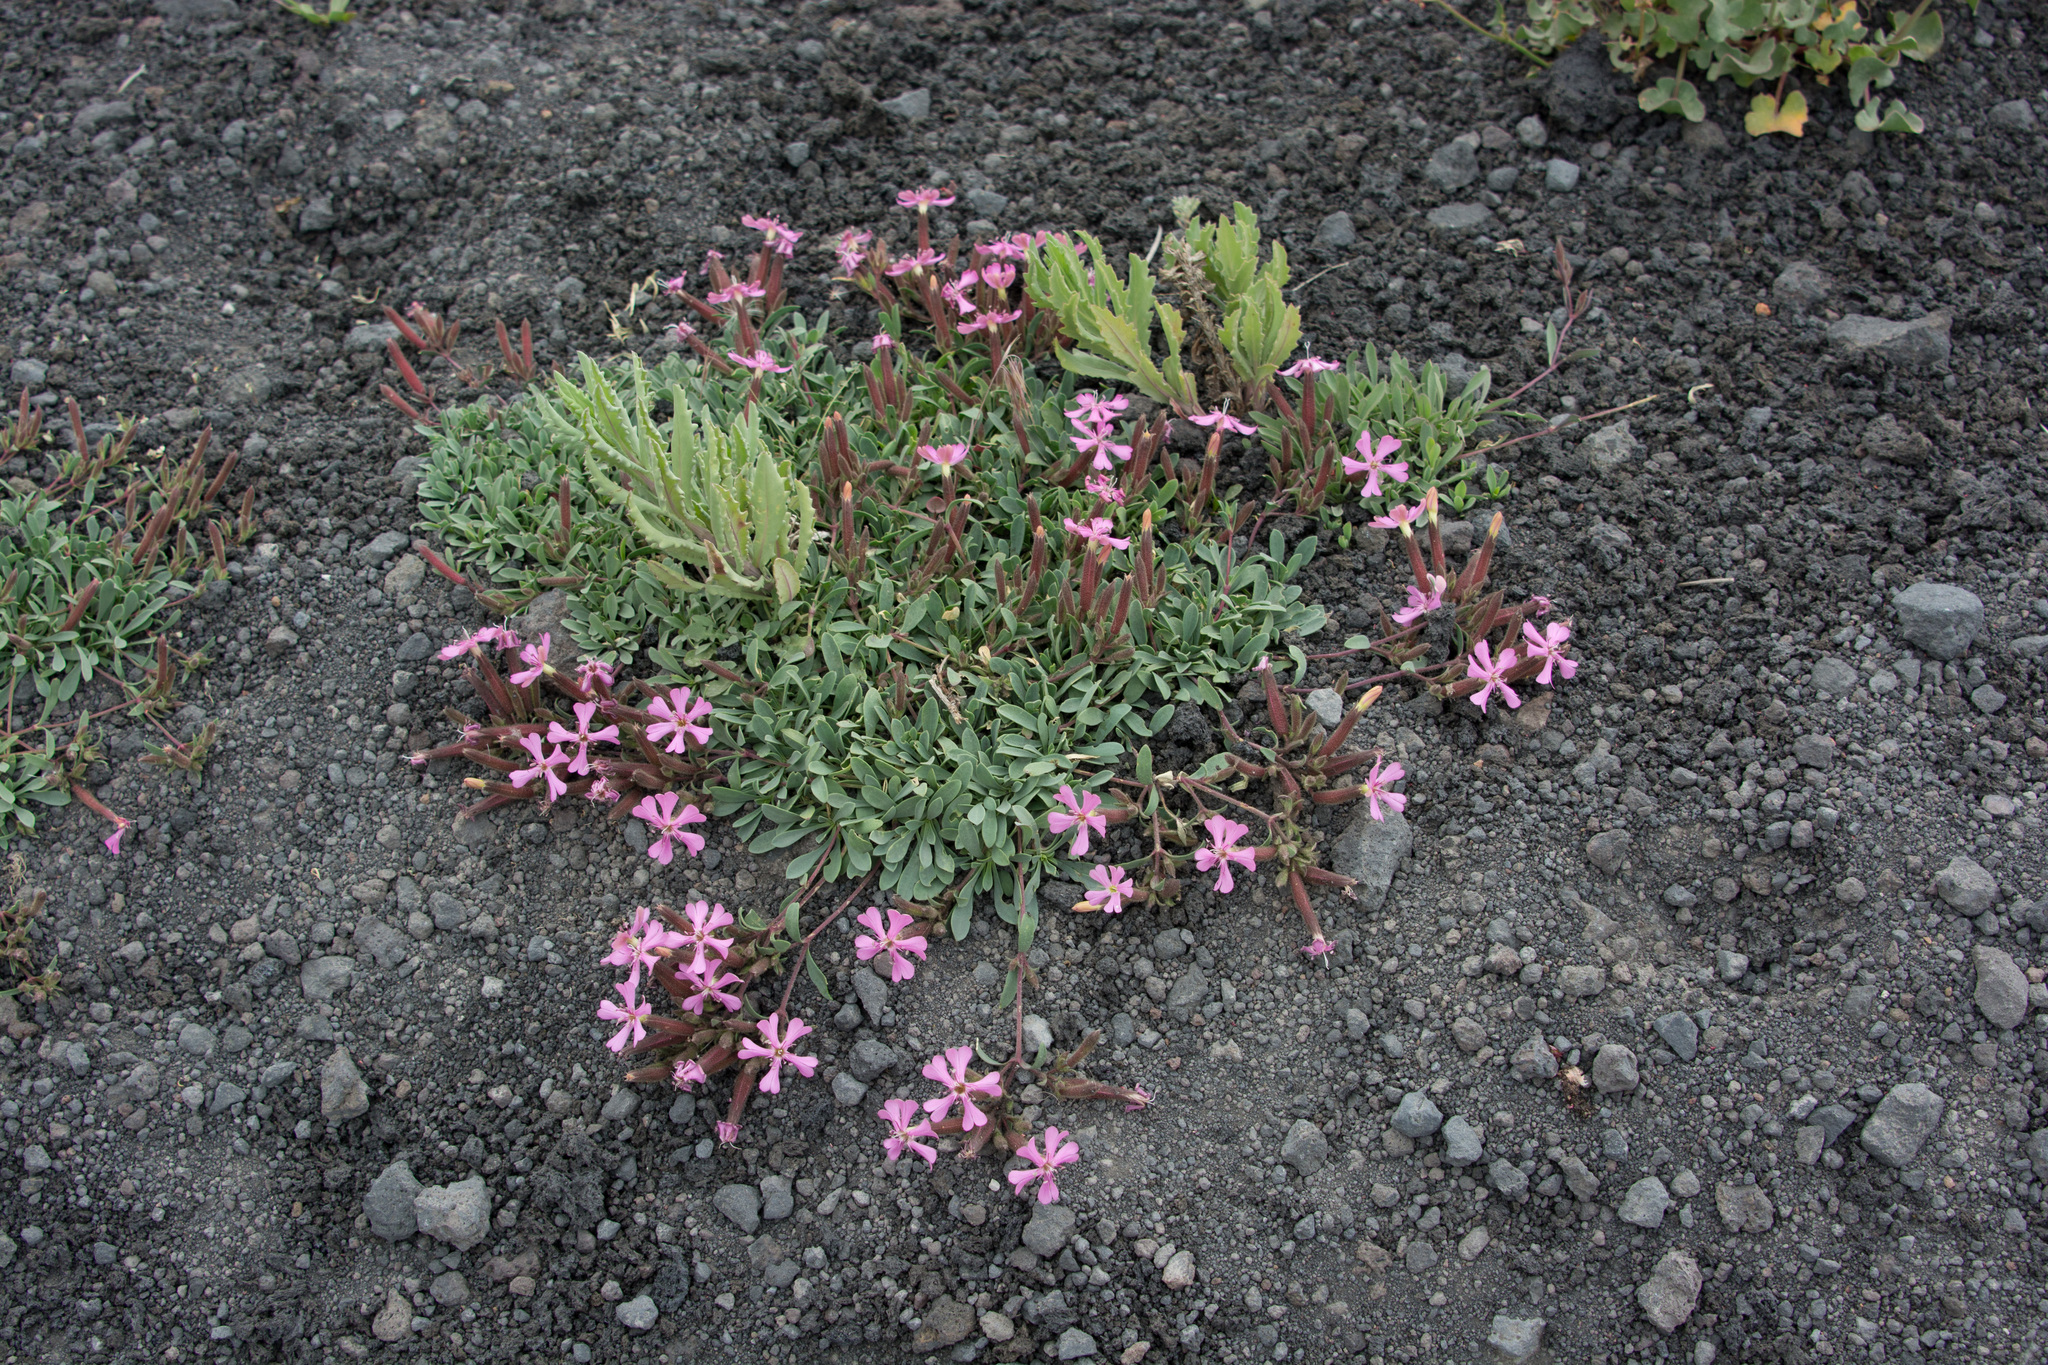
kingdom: Plantae
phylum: Tracheophyta
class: Magnoliopsida
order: Caryophyllales
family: Caryophyllaceae
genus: Saponaria
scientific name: Saponaria sicula
